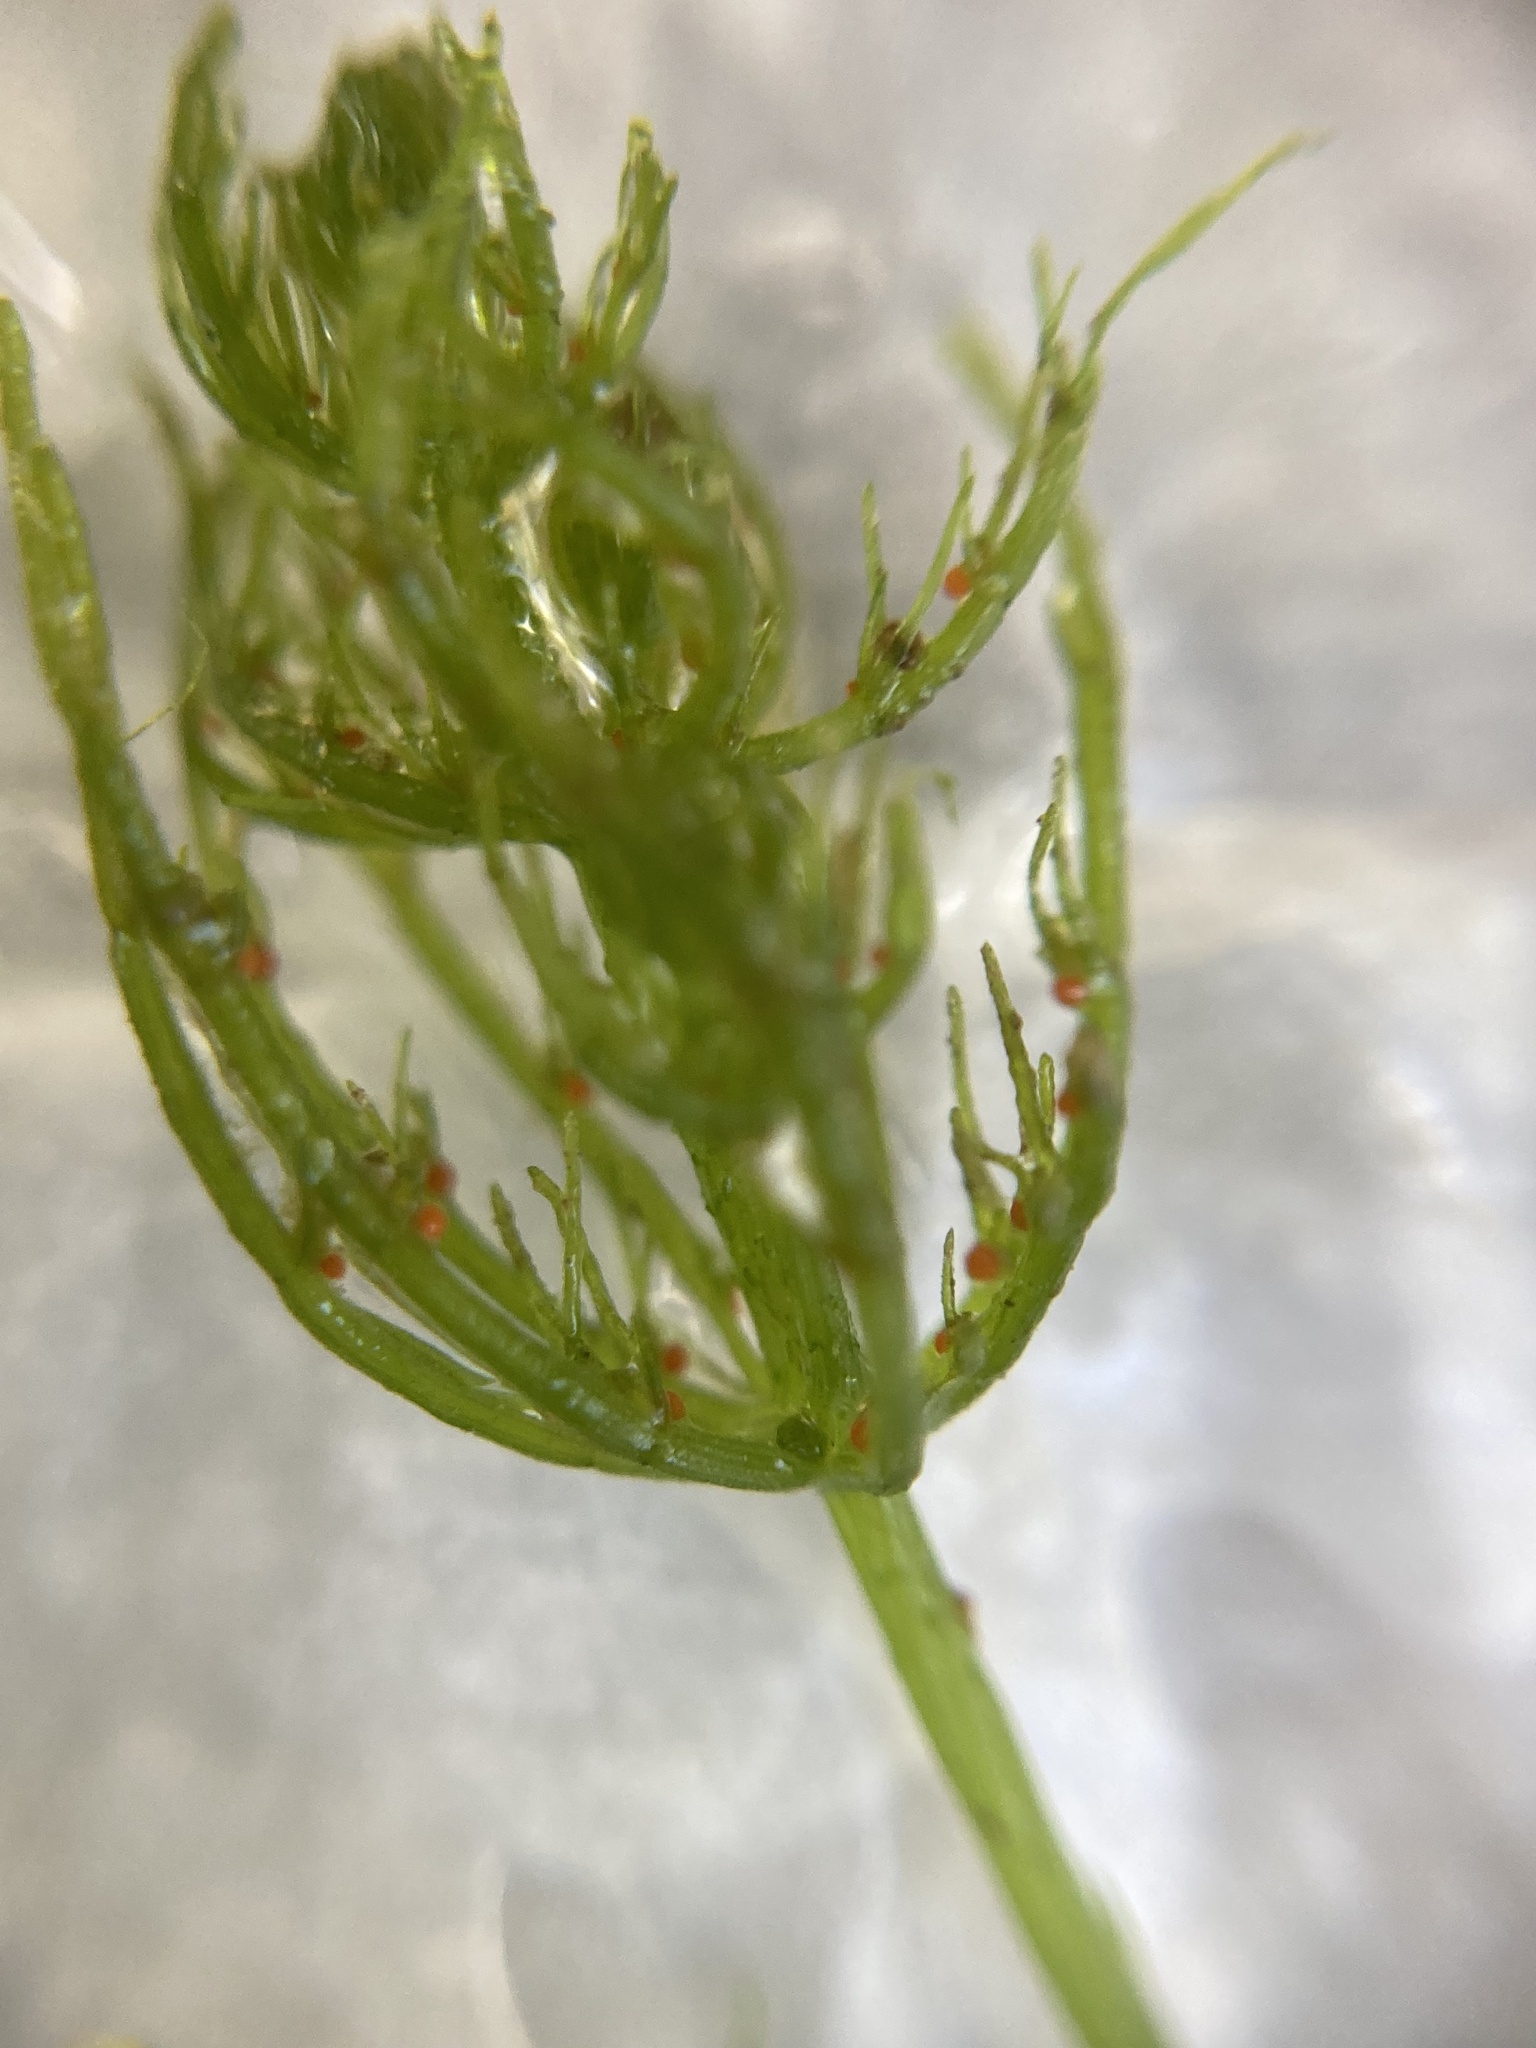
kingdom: Plantae
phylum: Charophyta
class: Charophyceae
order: Charales
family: Characeae
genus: Chara
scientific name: Chara vulgaris
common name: Common stonewort
